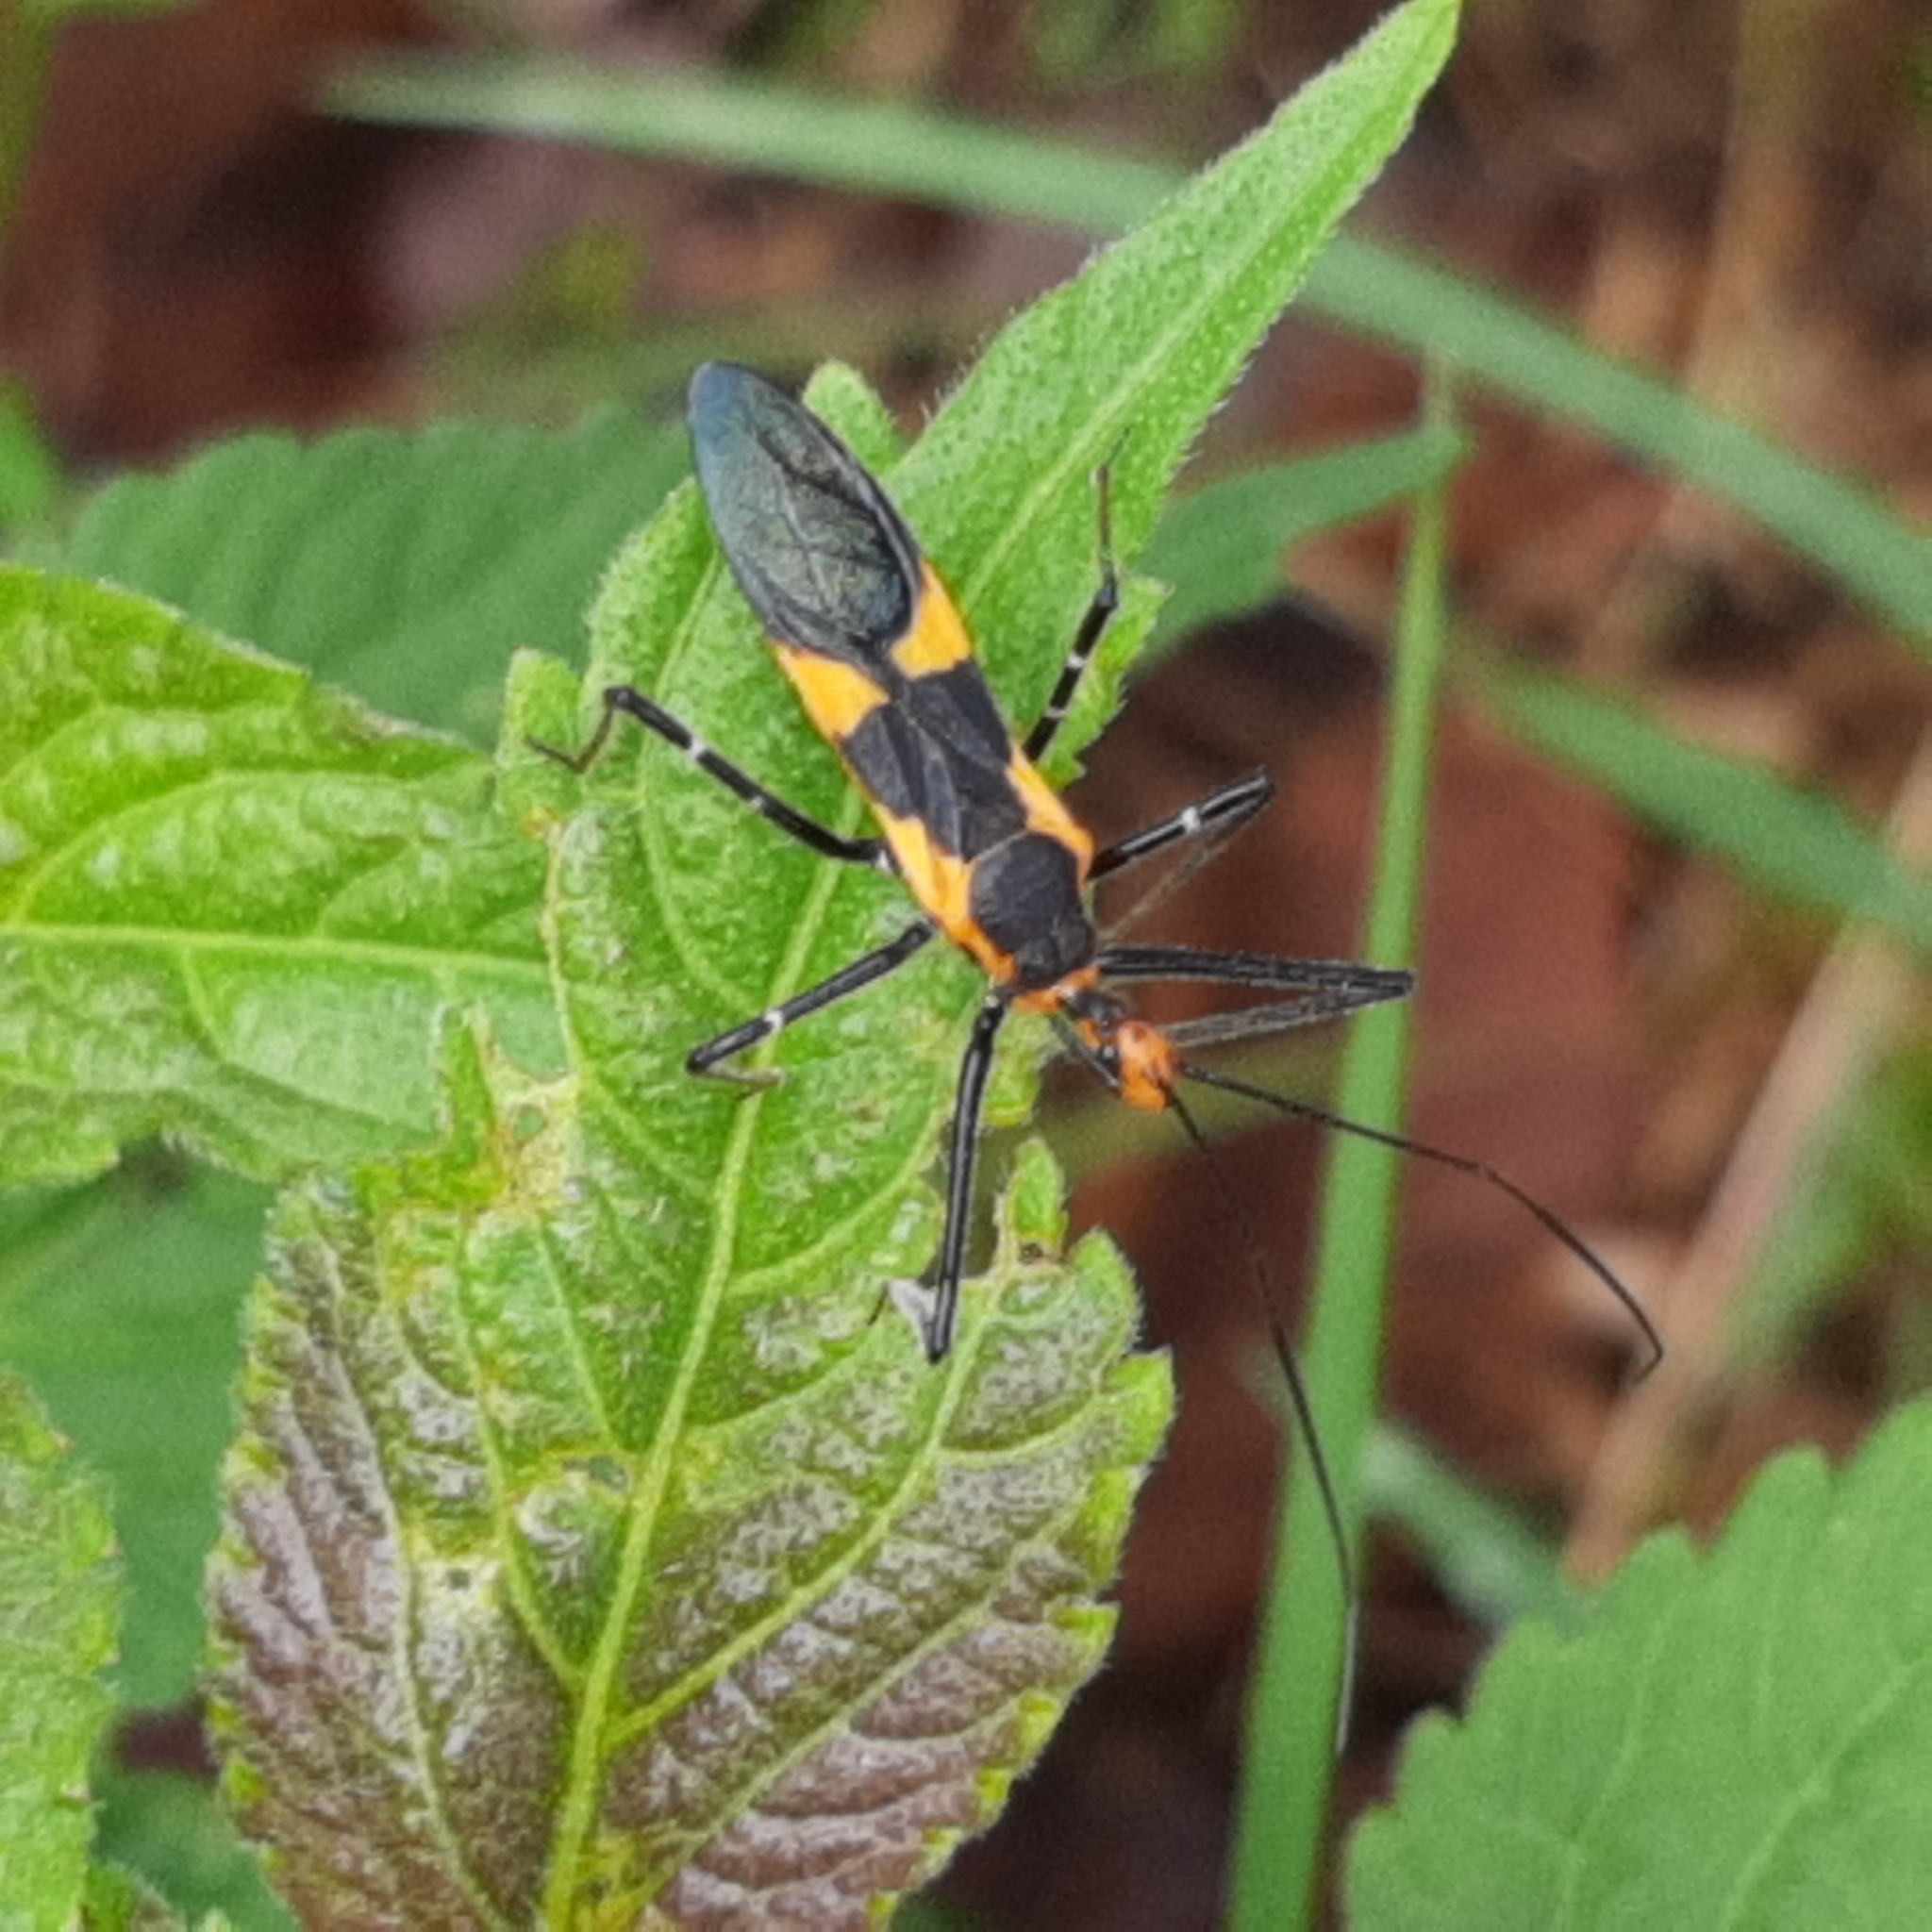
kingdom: Animalia
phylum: Arthropoda
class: Insecta
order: Hemiptera
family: Reduviidae
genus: Zelus
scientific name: Zelus longipes
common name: Milkweed assassin bug
